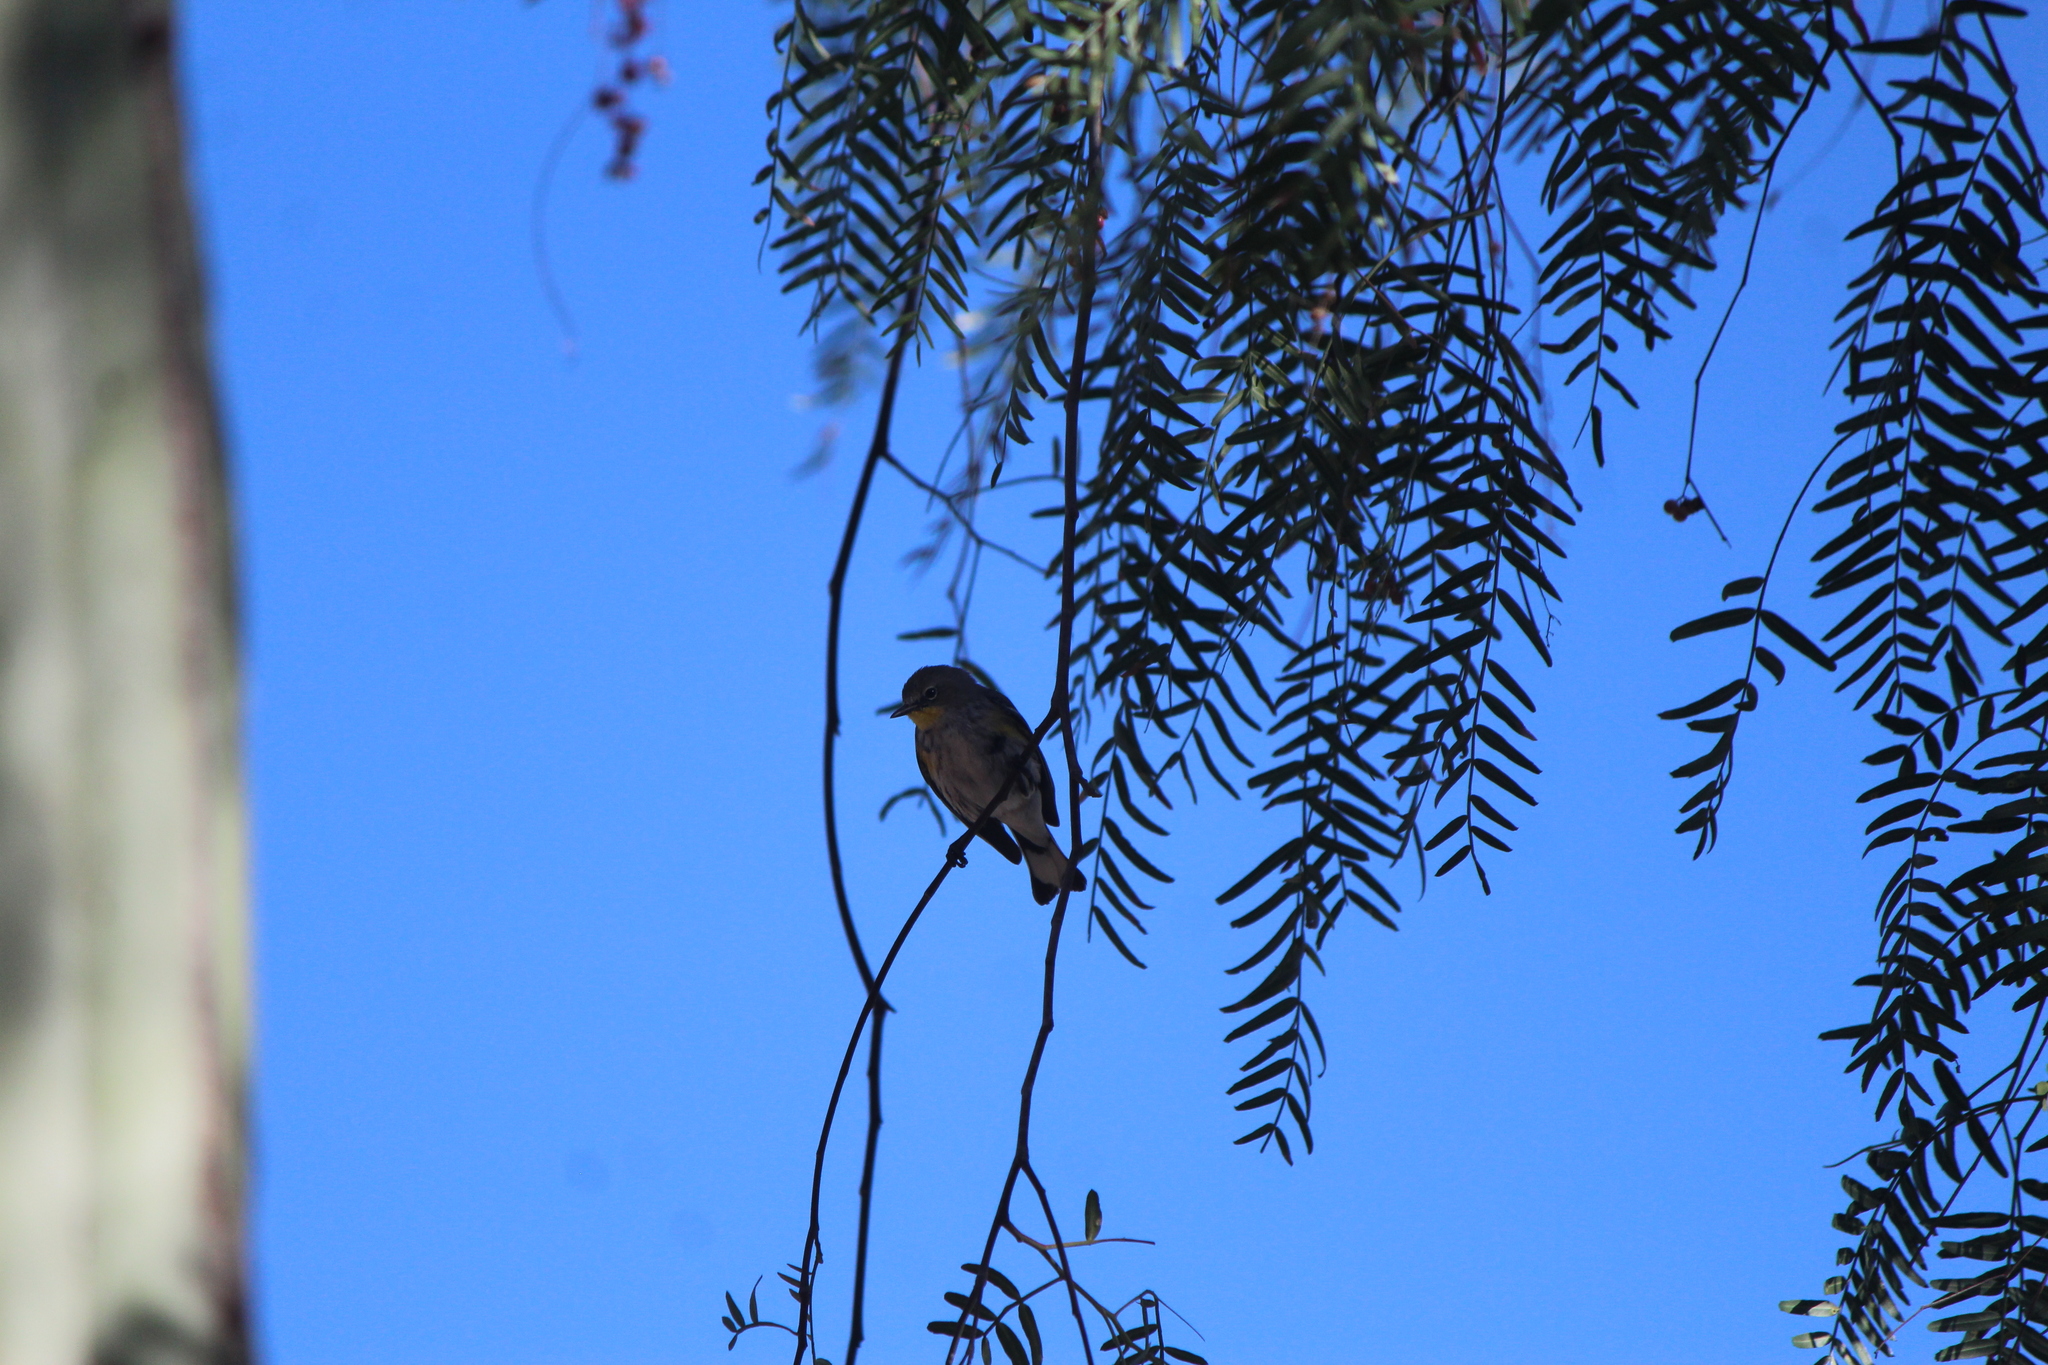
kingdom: Animalia
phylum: Chordata
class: Aves
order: Passeriformes
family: Parulidae
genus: Setophaga
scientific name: Setophaga auduboni
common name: Audubon's warbler
